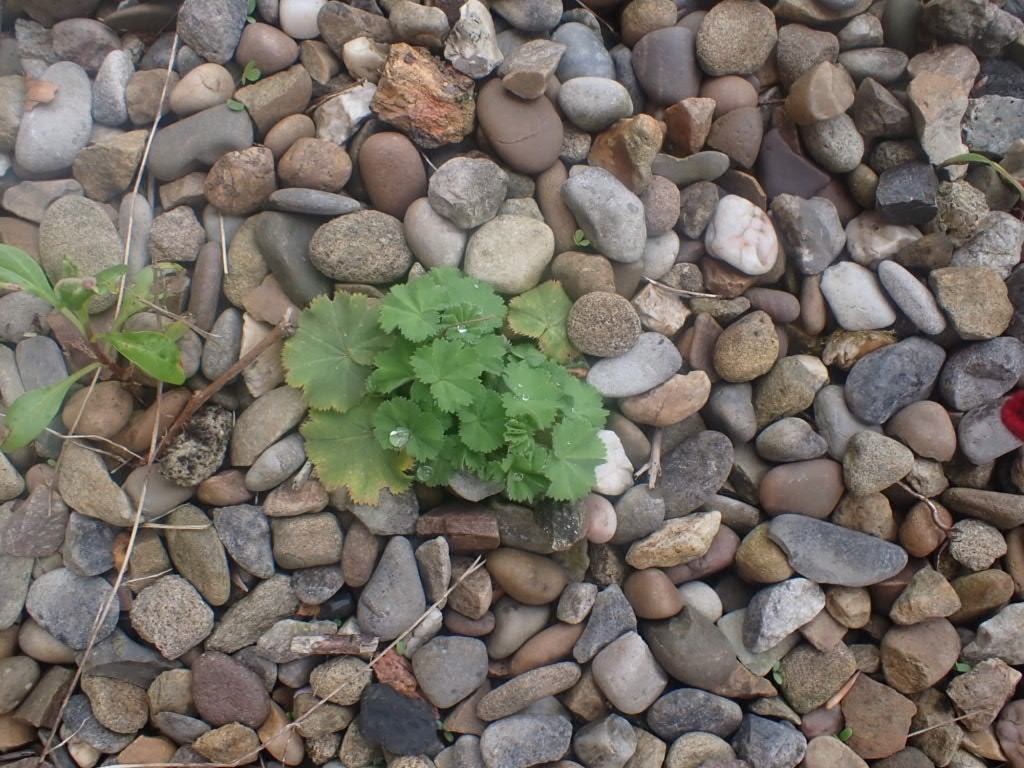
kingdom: Plantae
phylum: Tracheophyta
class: Magnoliopsida
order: Rosales
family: Rosaceae
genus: Alchemilla
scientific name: Alchemilla mollis
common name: Lady's-mantle
